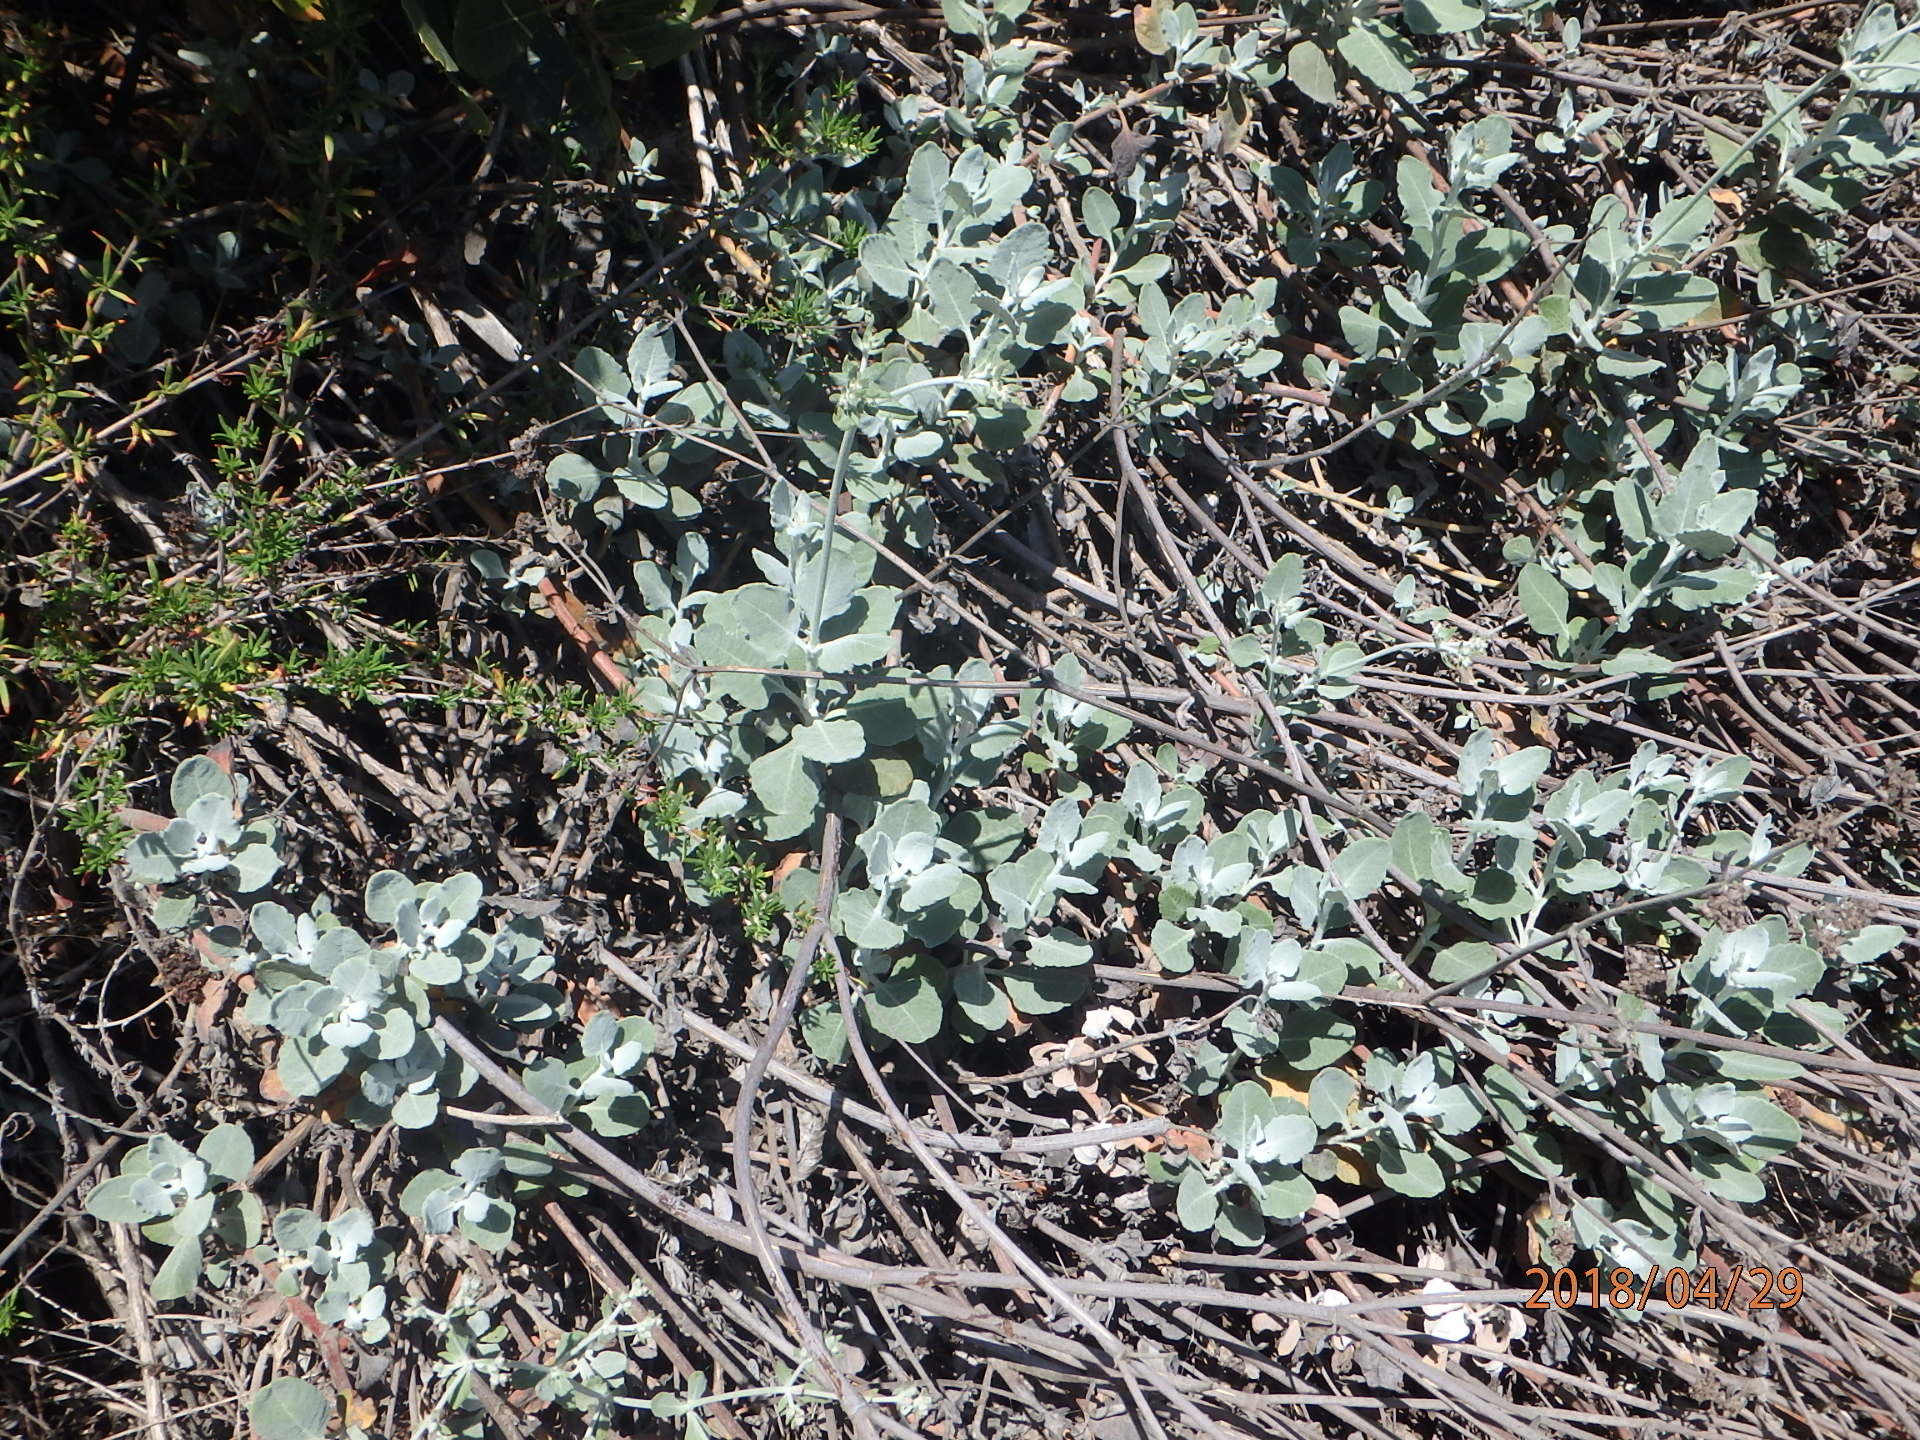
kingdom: Plantae
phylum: Tracheophyta
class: Magnoliopsida
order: Caryophyllales
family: Polygonaceae
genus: Eriogonum
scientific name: Eriogonum cinereum
